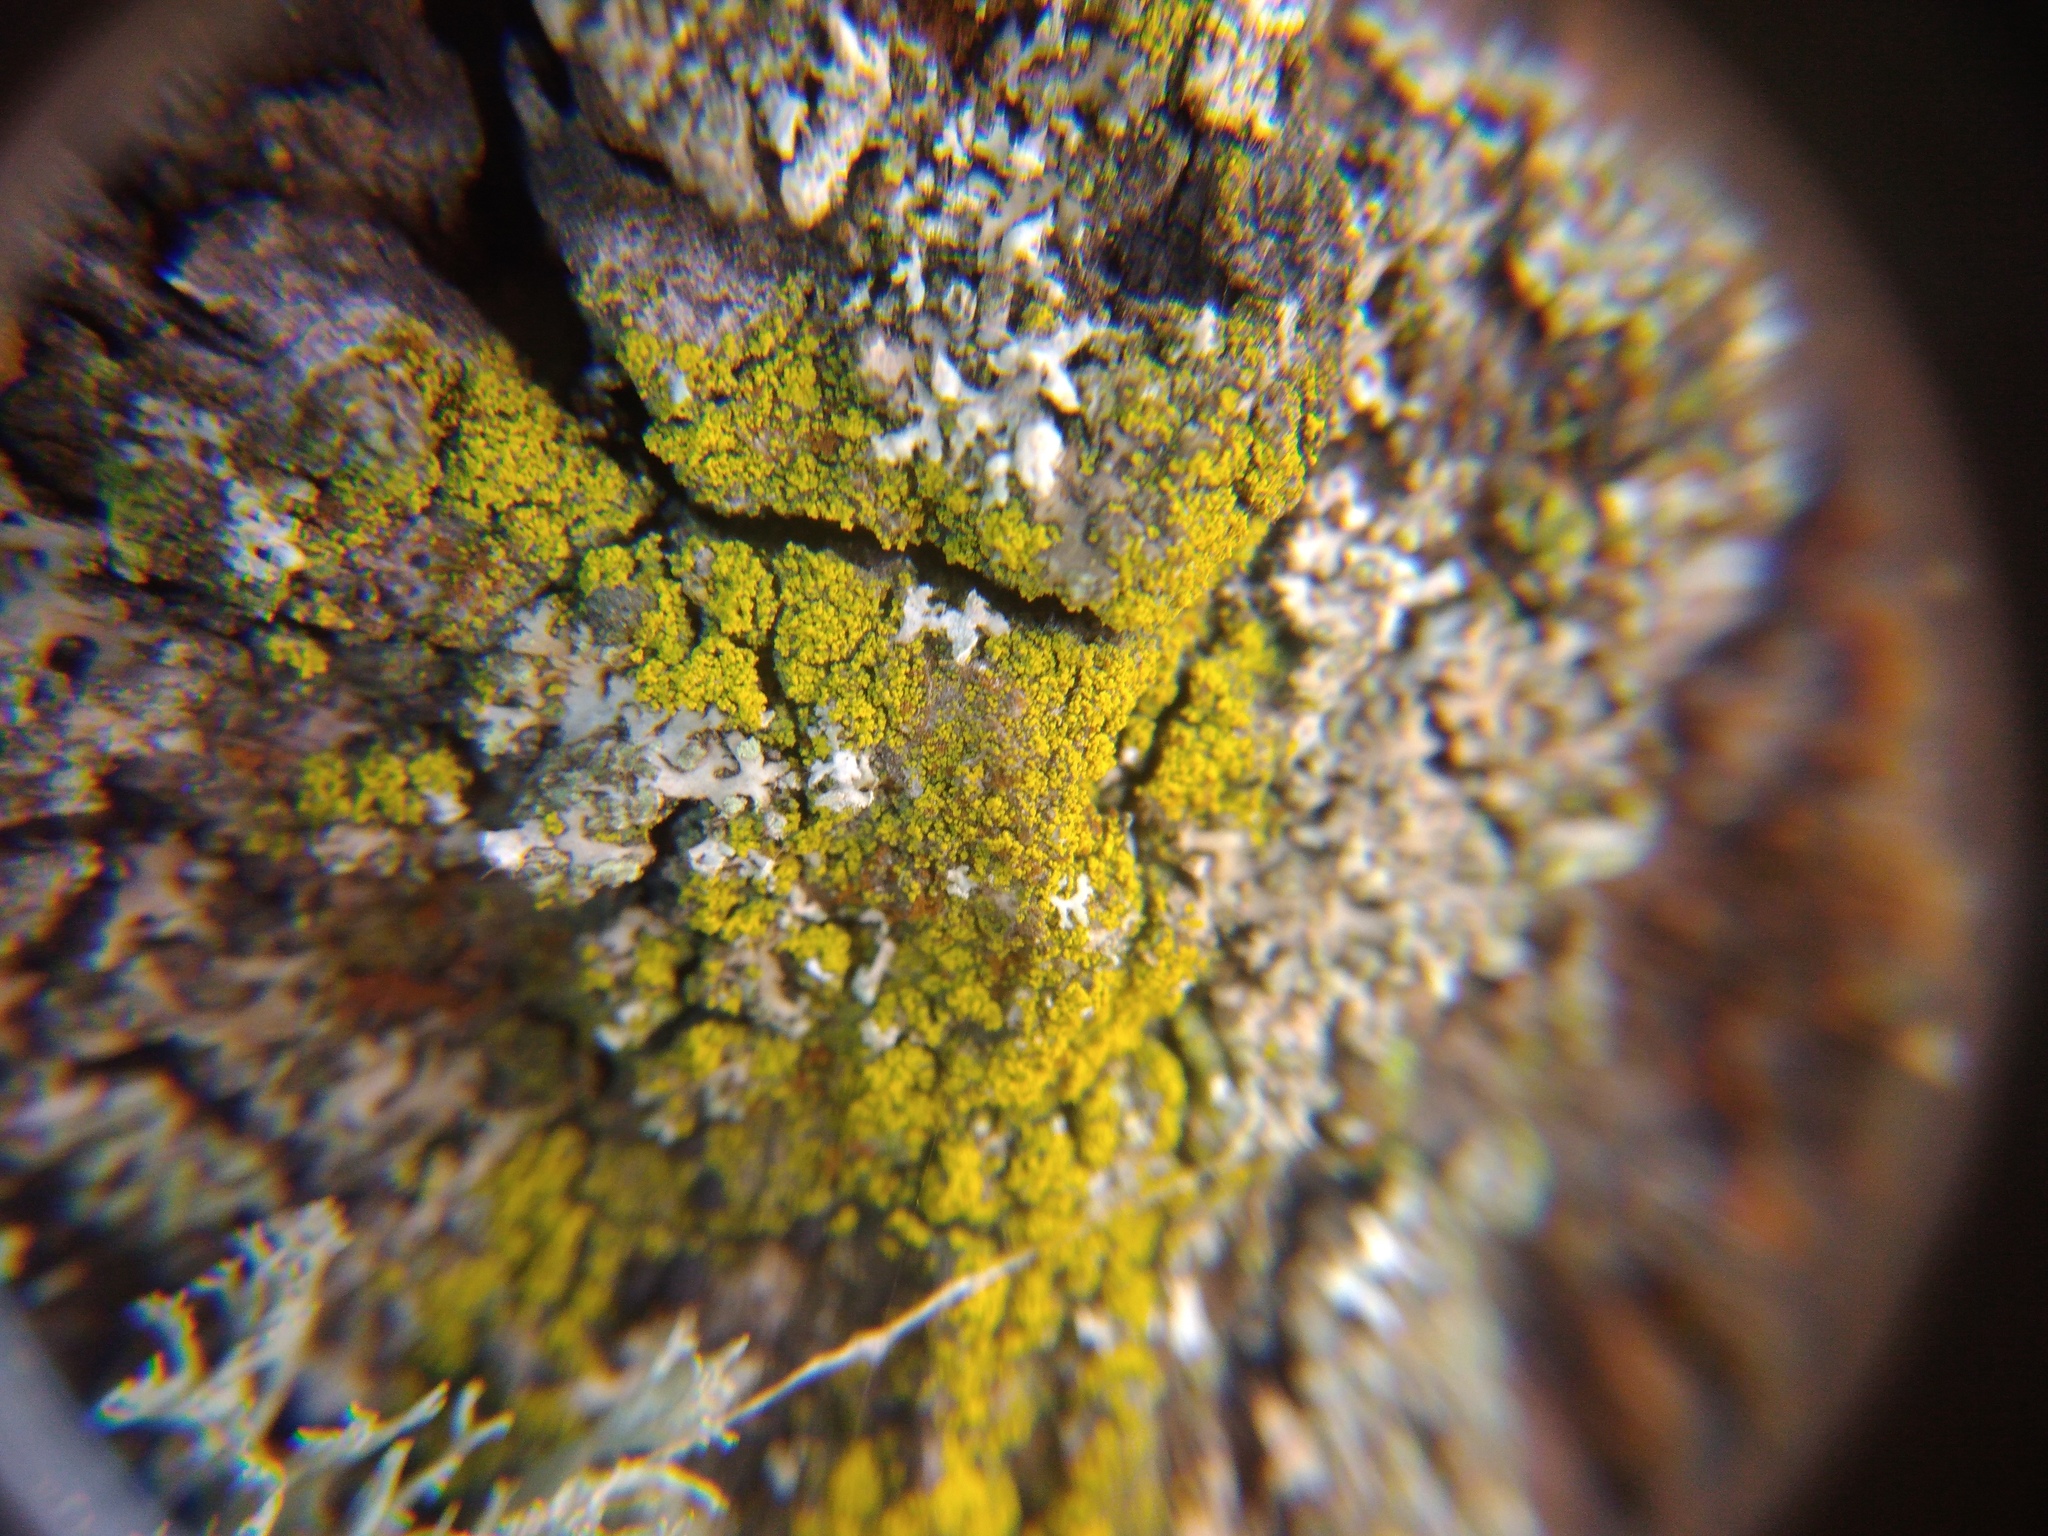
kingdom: Fungi
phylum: Ascomycota
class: Candelariomycetes
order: Candelariales
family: Candelariaceae
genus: Candelariella
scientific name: Candelariella efflorescens
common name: Powdery goldspeck
